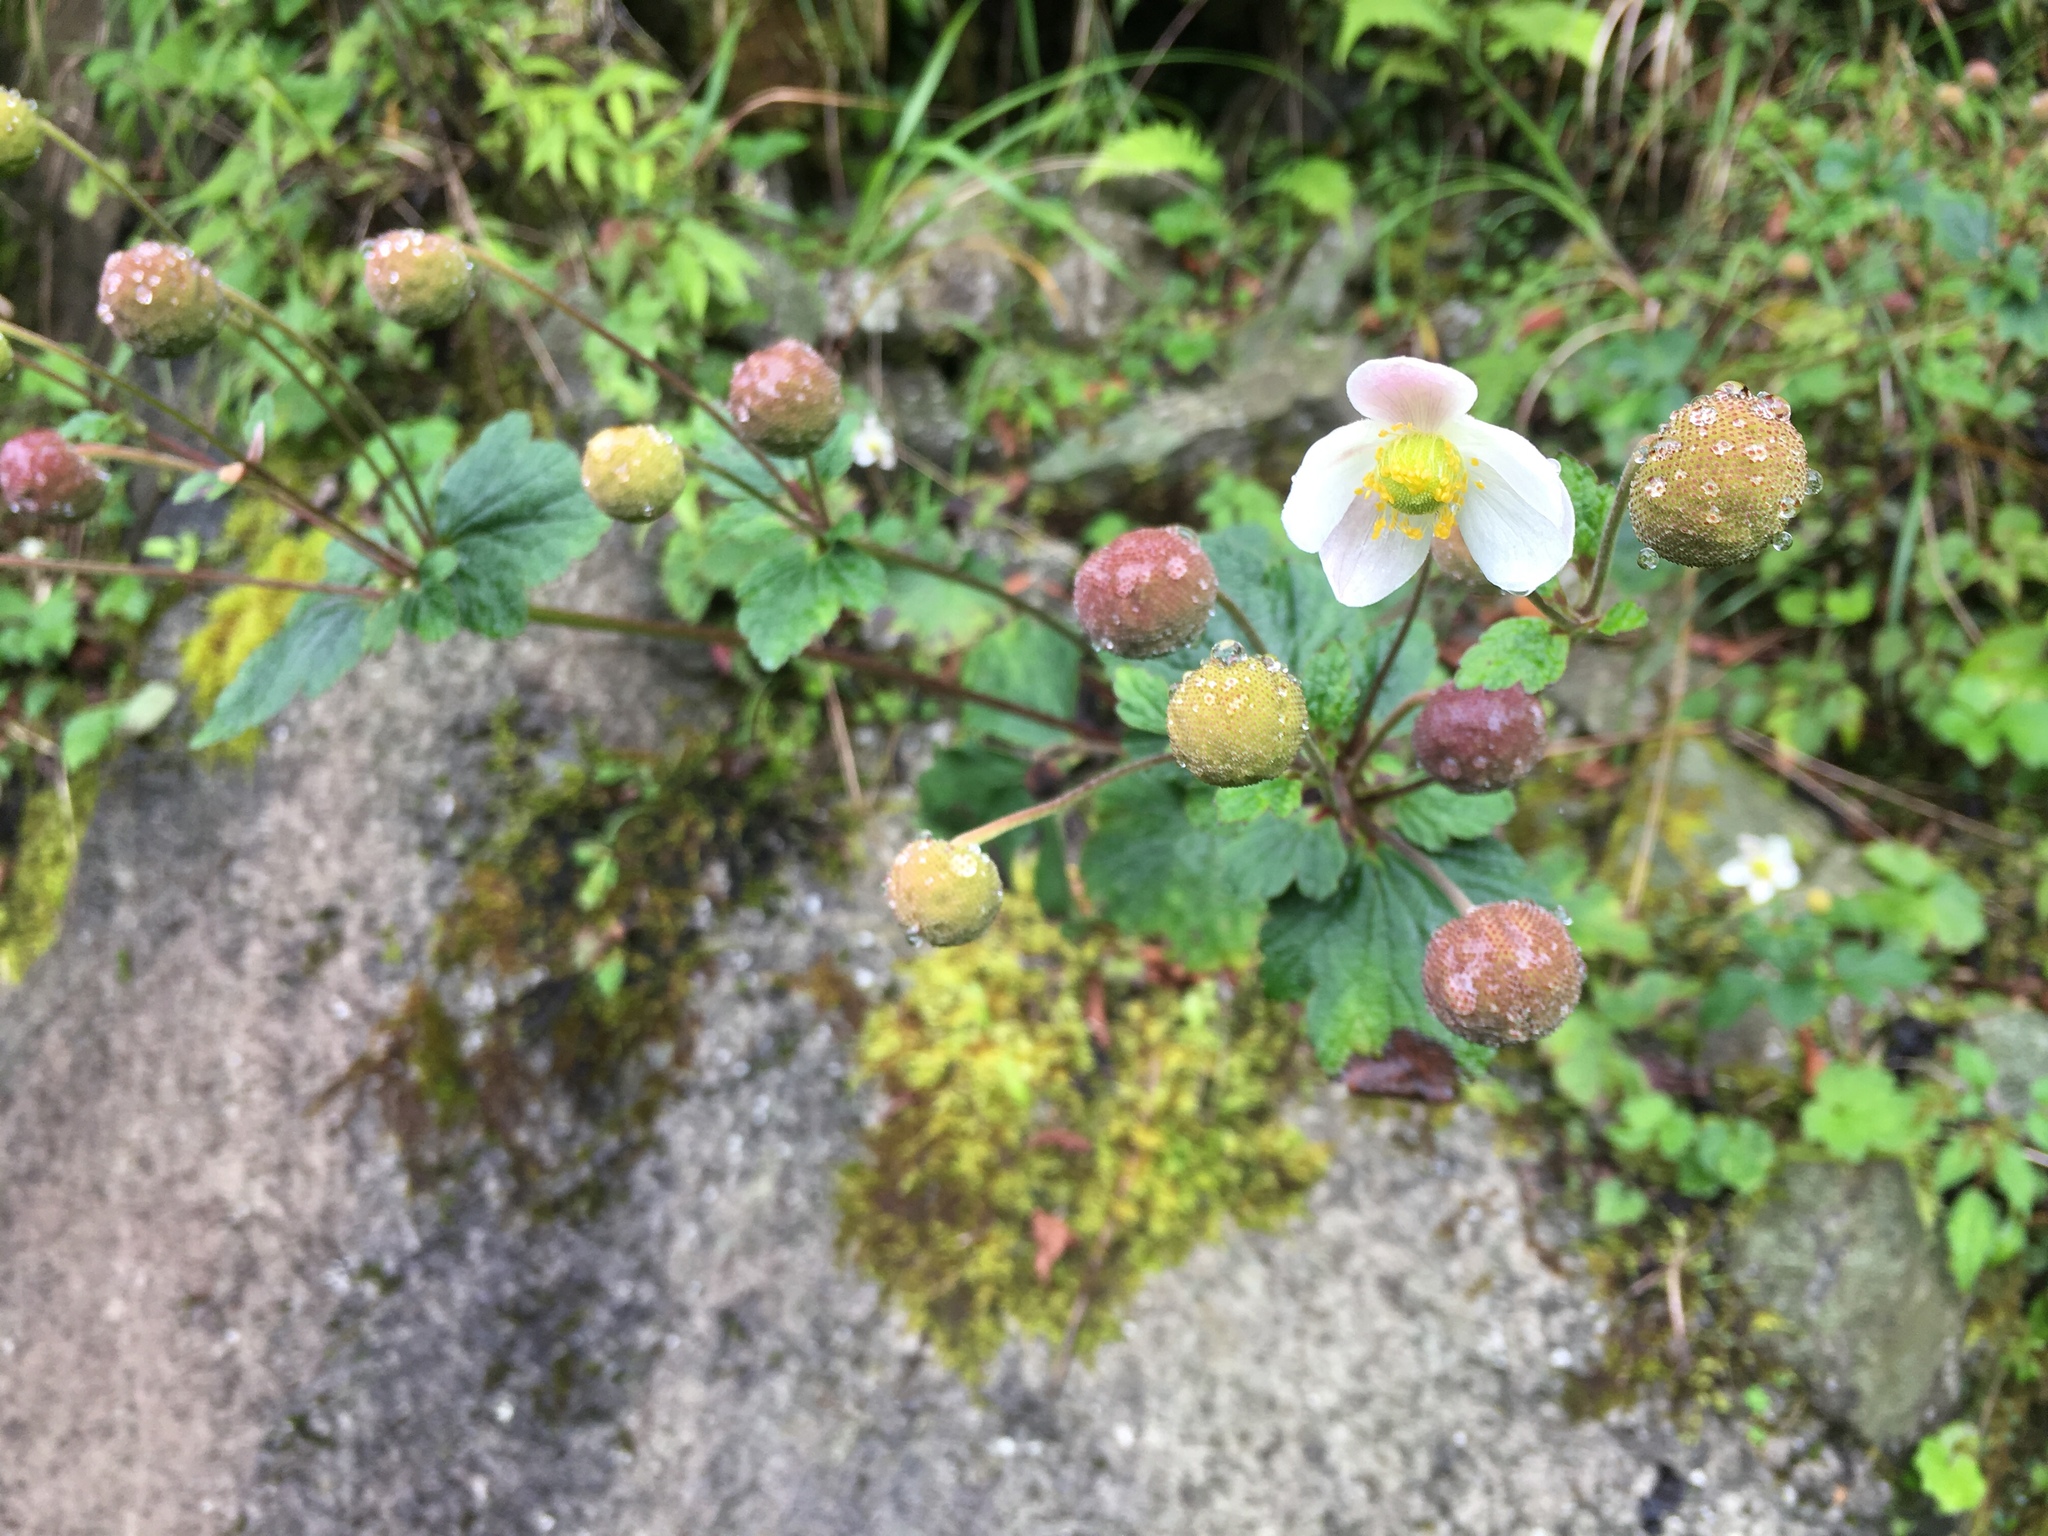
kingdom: Plantae
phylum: Tracheophyta
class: Magnoliopsida
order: Ranunculales
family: Ranunculaceae
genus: Eriocapitella
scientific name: Eriocapitella vitifolia
